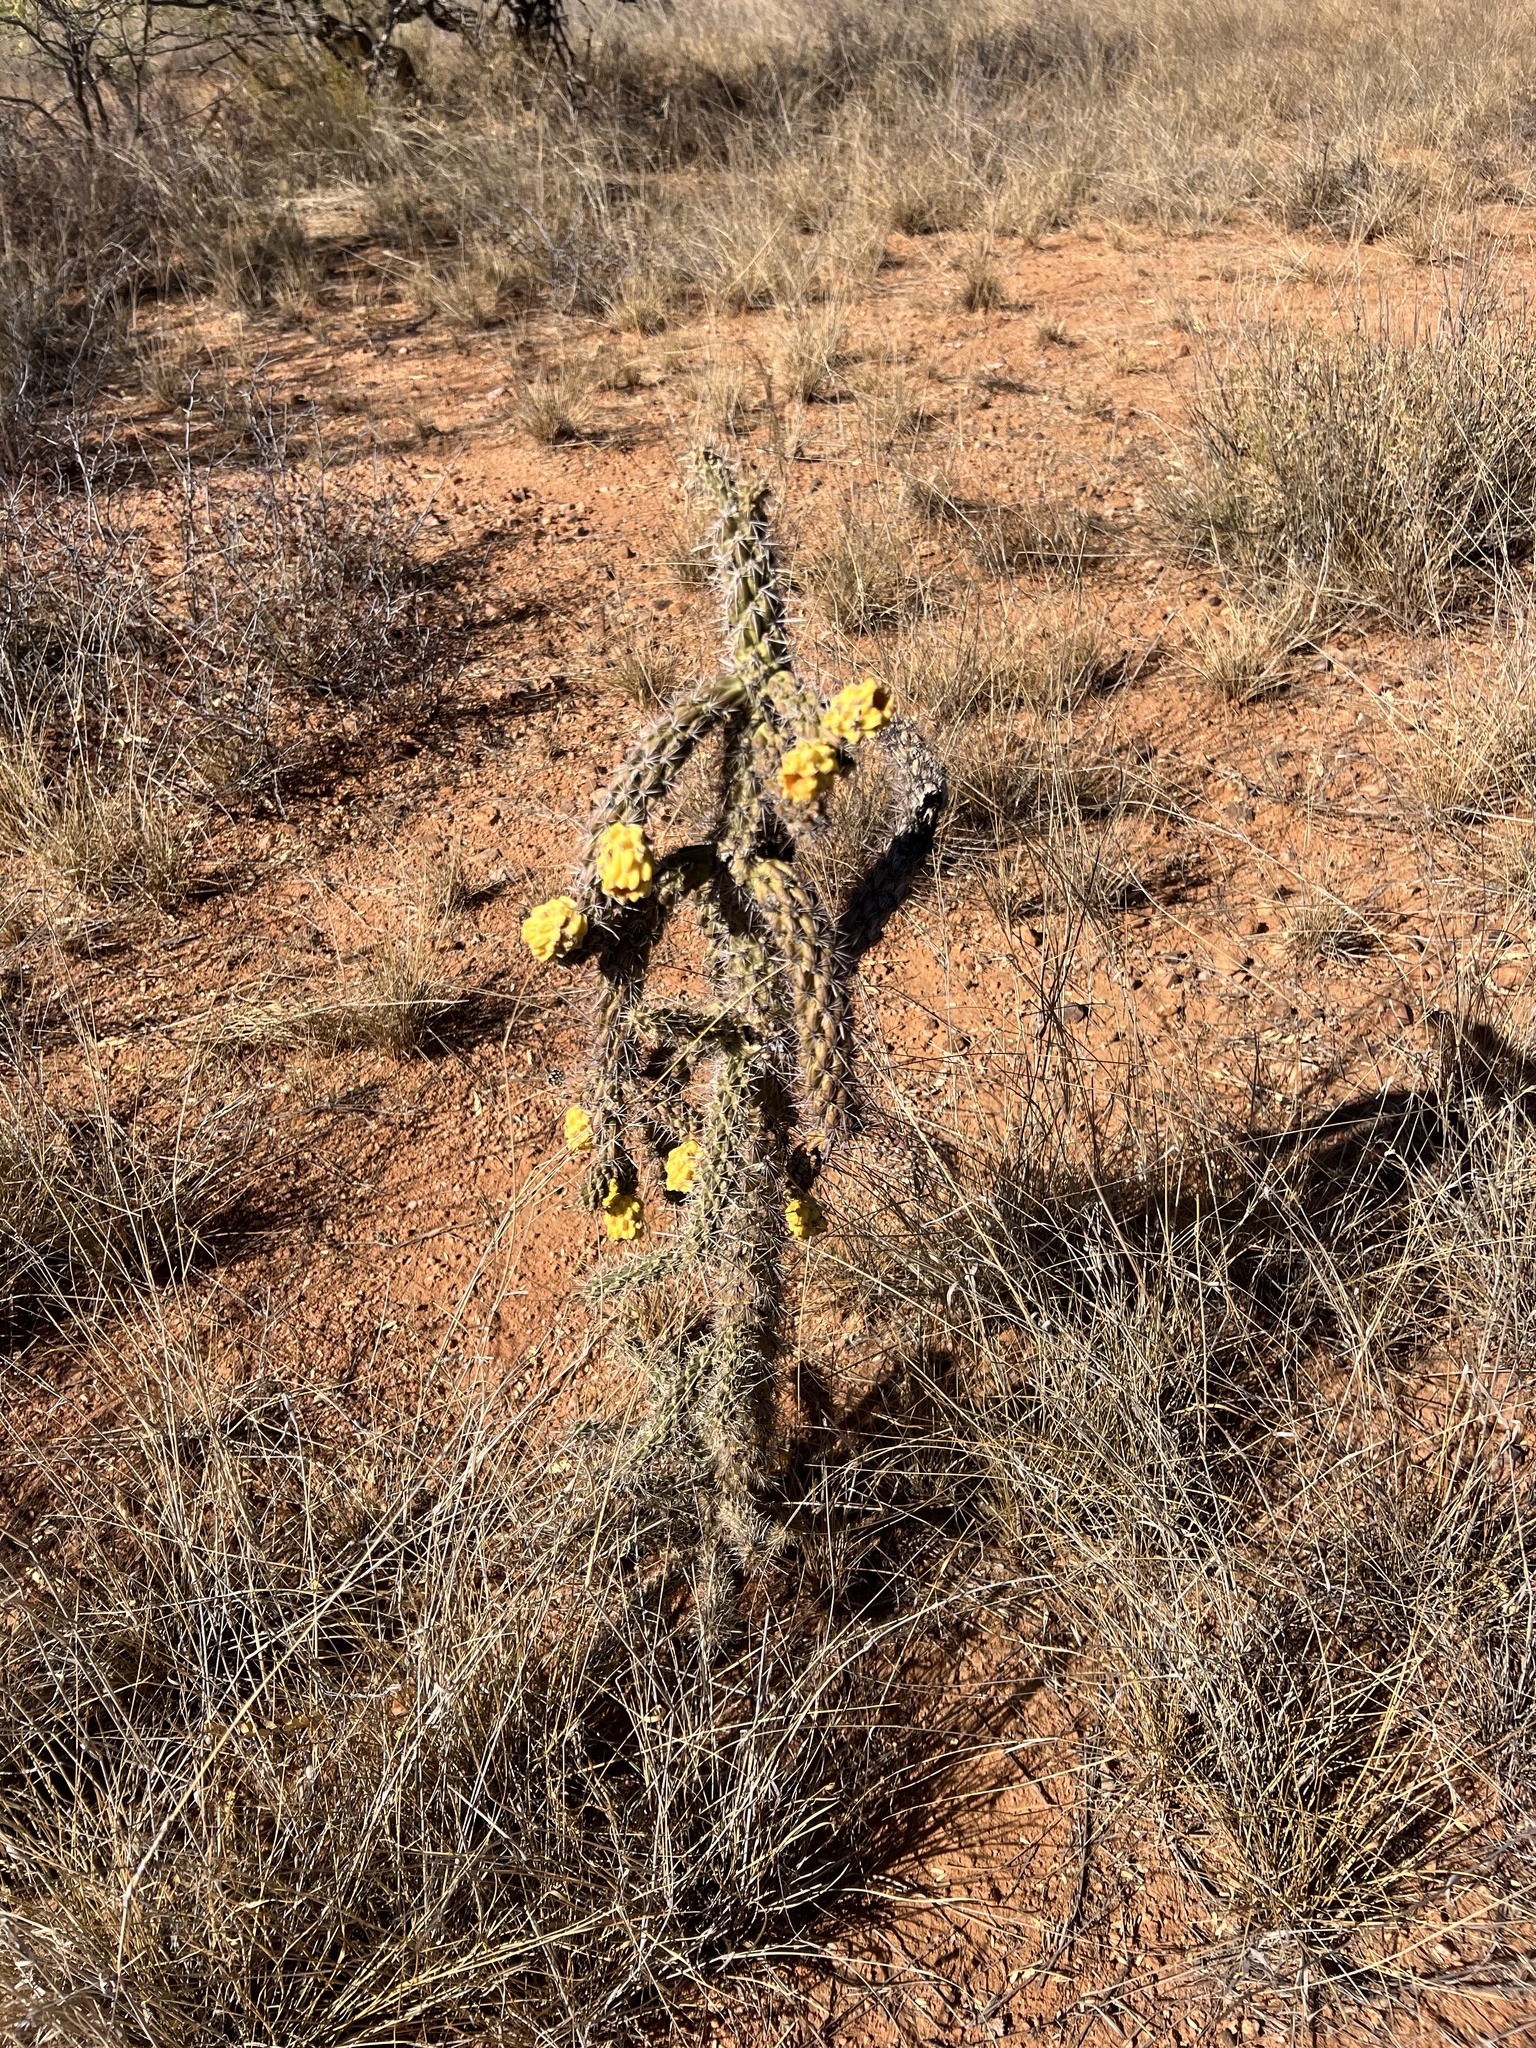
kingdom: Plantae
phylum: Tracheophyta
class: Magnoliopsida
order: Caryophyllales
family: Cactaceae
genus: Cylindropuntia
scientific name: Cylindropuntia imbricata
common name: Candelabrum cactus
